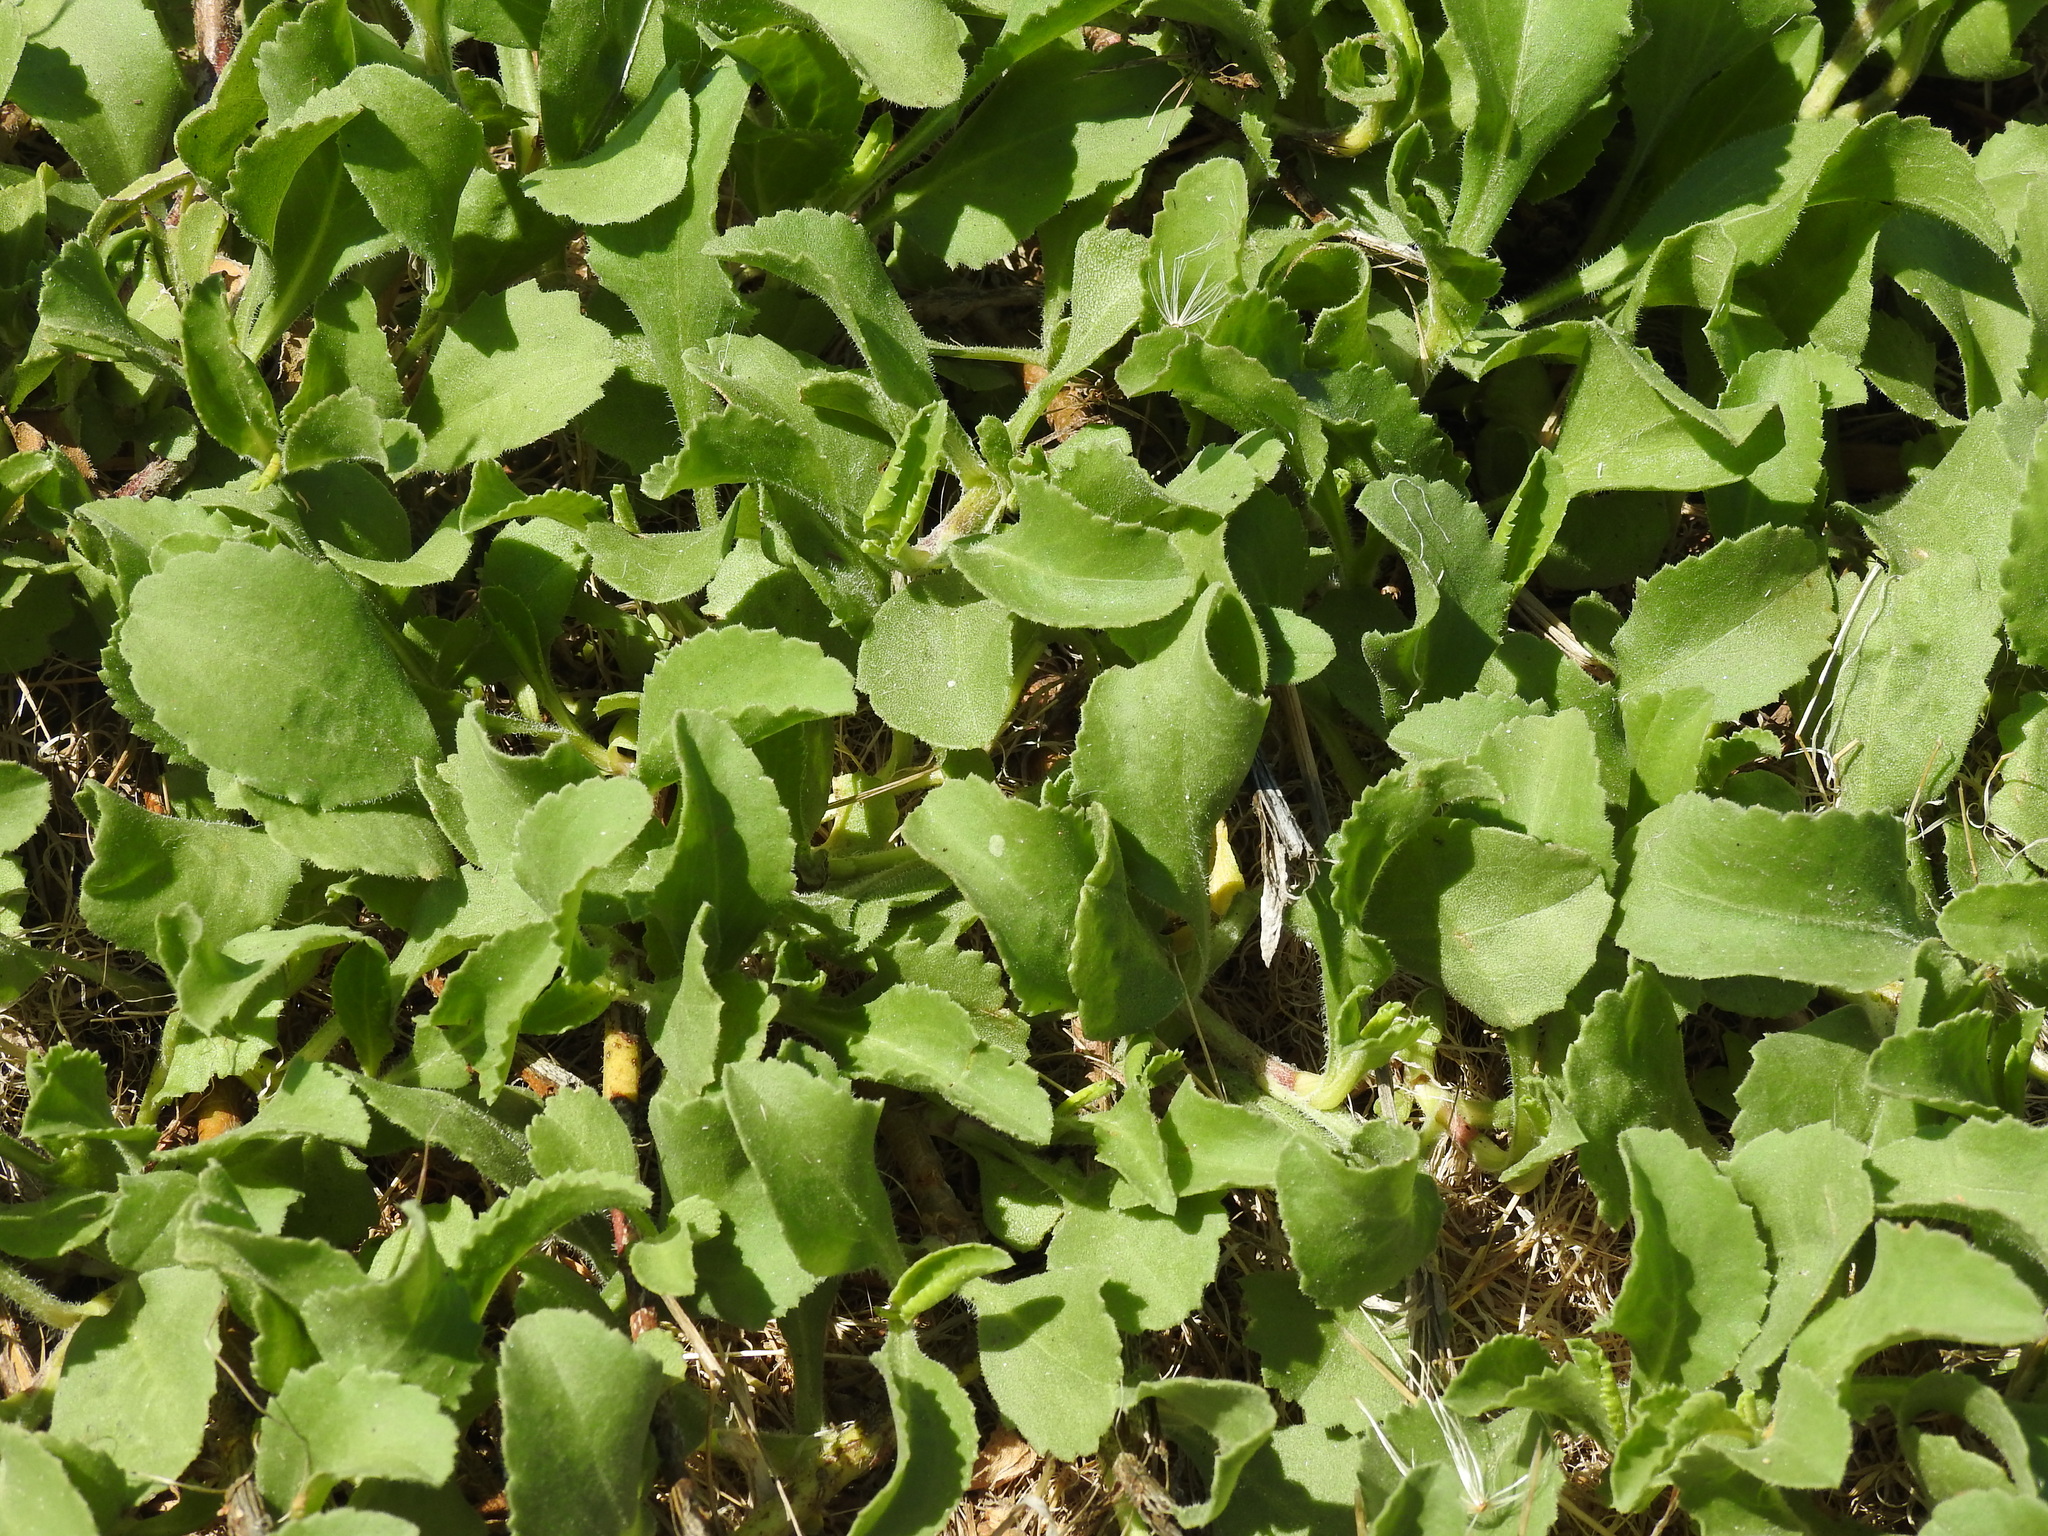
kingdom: Plantae
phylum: Tracheophyta
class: Magnoliopsida
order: Asterales
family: Asteraceae
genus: Grindelia
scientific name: Grindelia hirsutula
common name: Hairy gumweed
